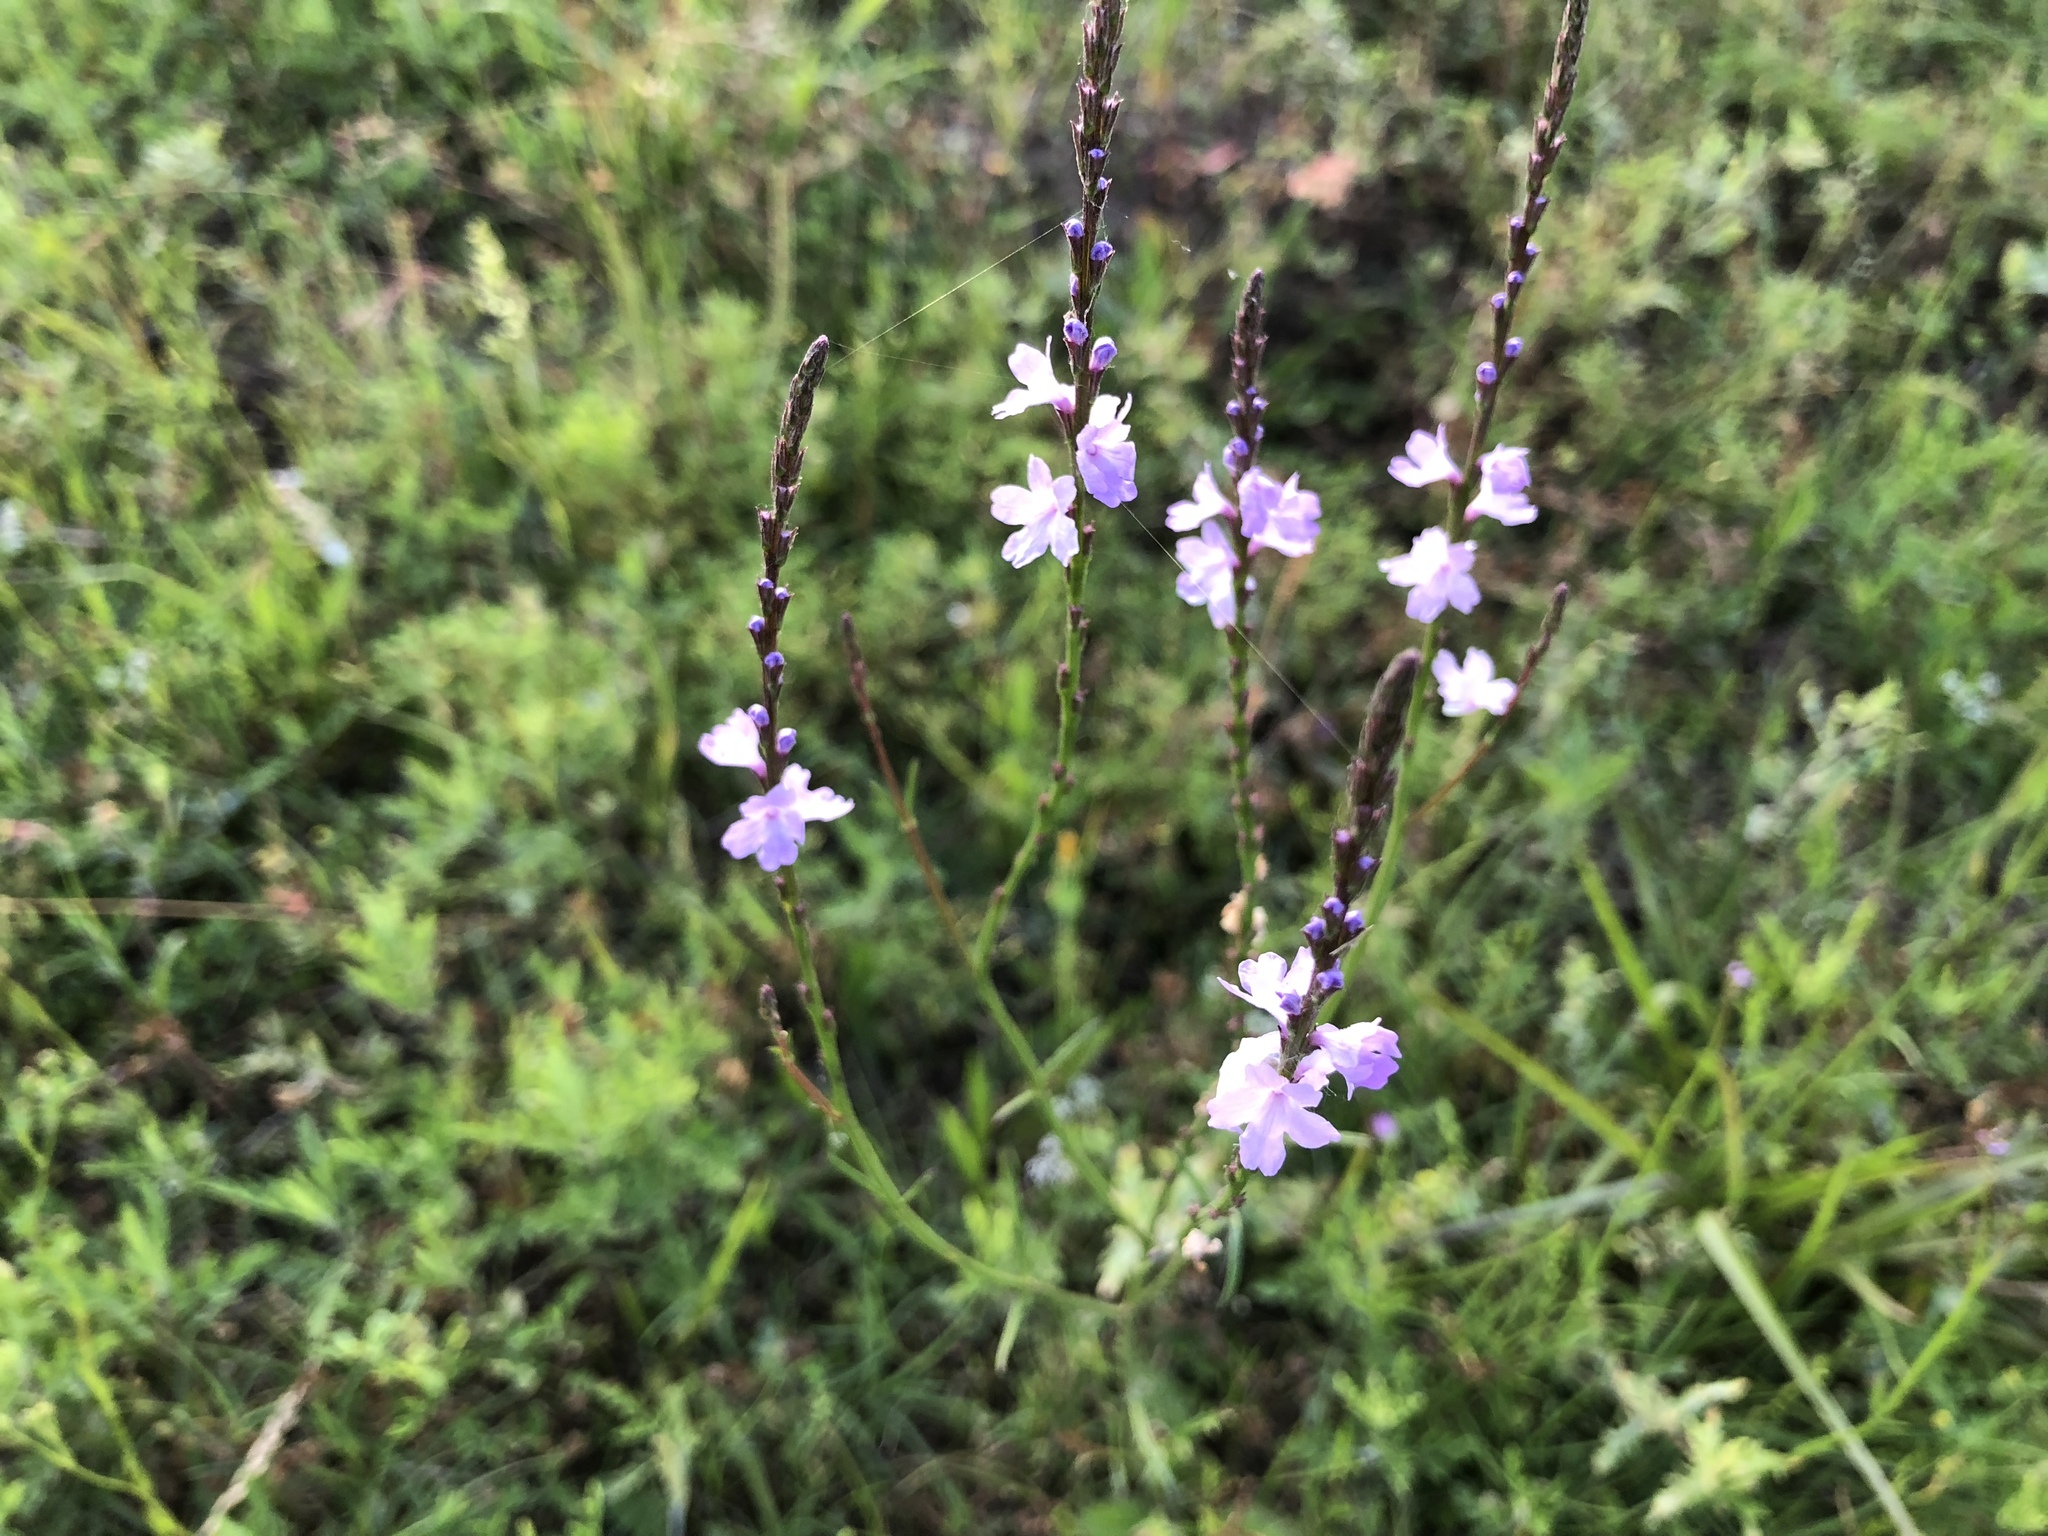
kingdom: Plantae
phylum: Tracheophyta
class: Magnoliopsida
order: Lamiales
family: Verbenaceae
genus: Verbena
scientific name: Verbena halei
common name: Texas vervain
